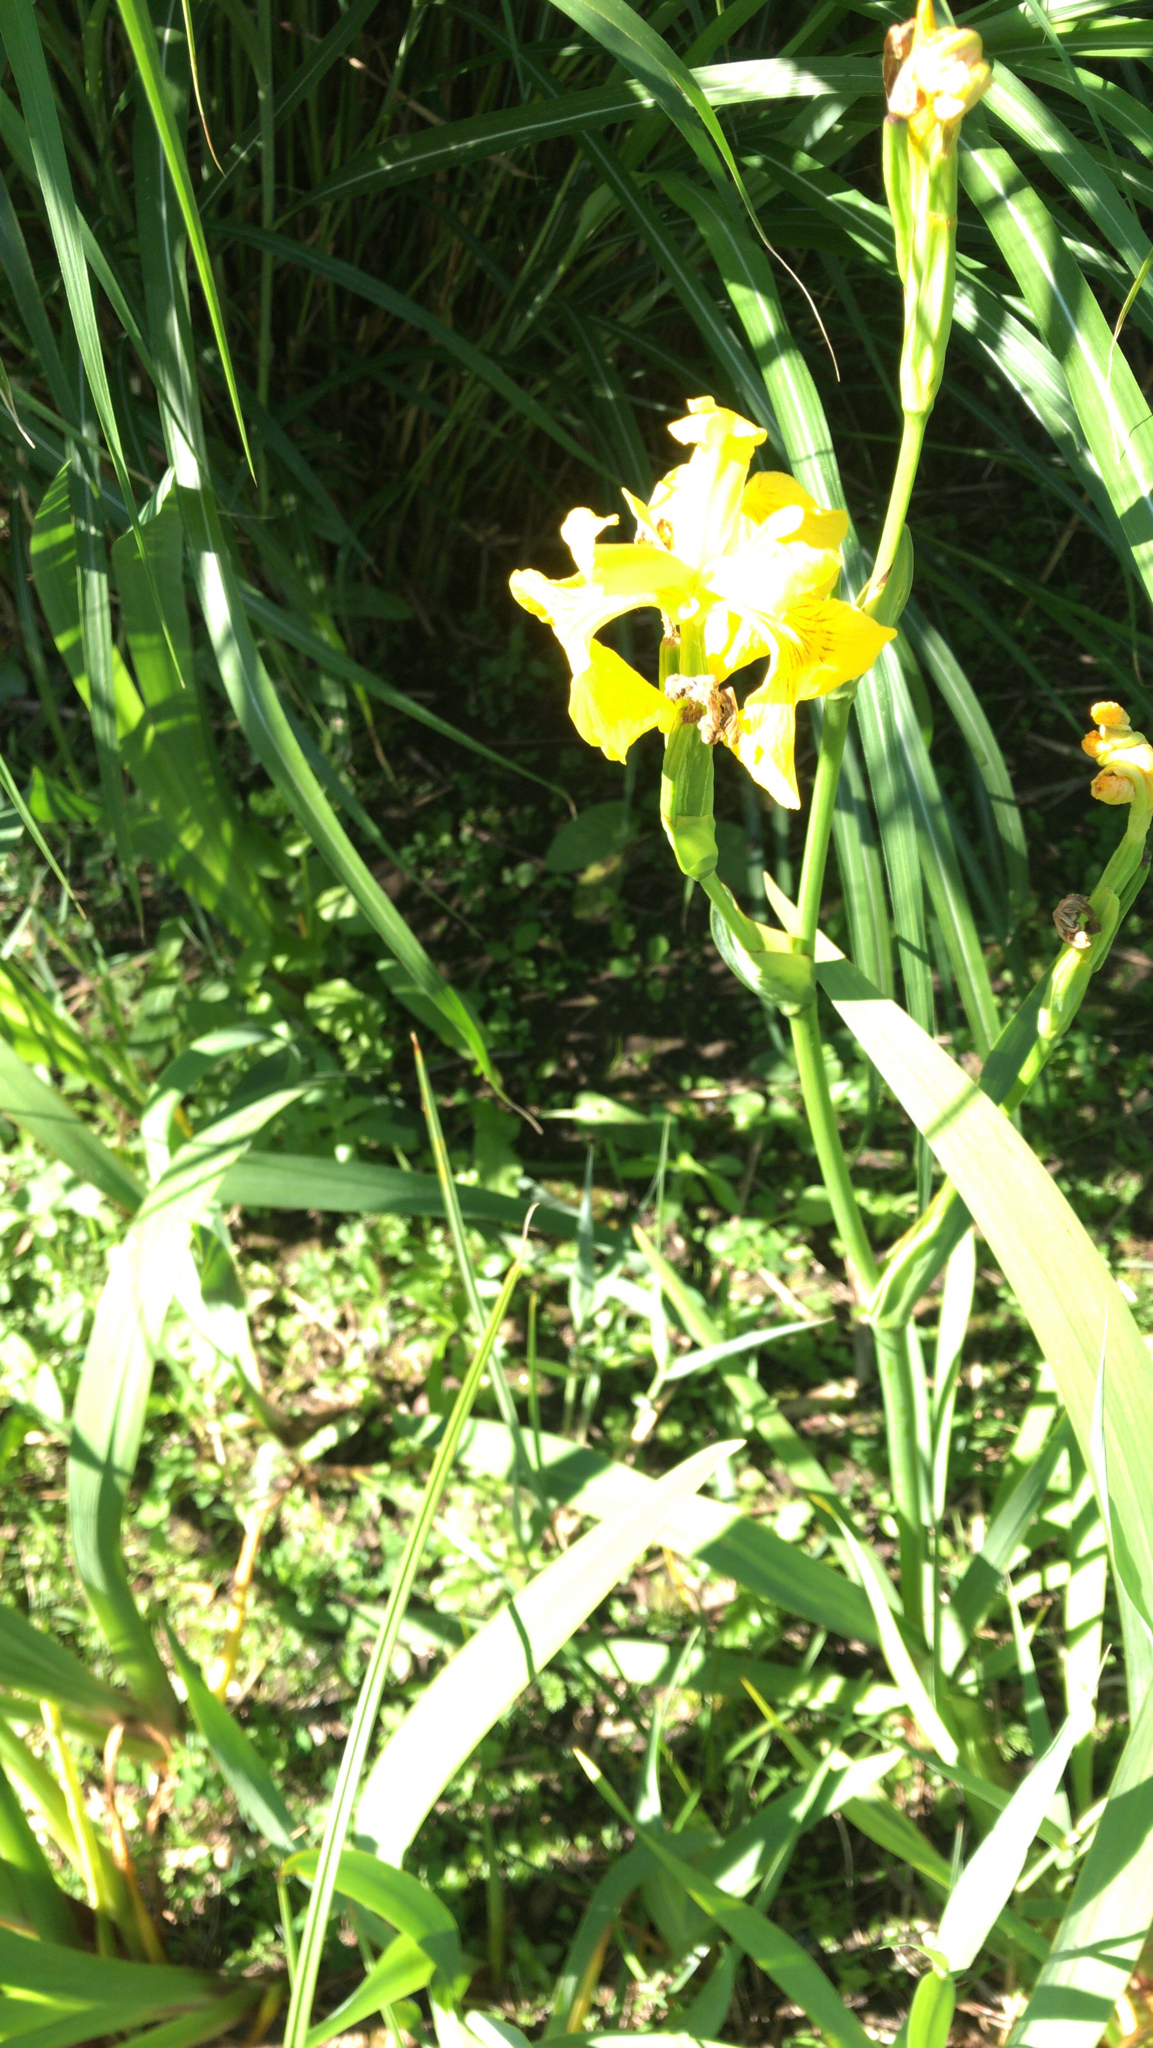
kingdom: Plantae
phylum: Tracheophyta
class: Liliopsida
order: Asparagales
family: Iridaceae
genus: Iris
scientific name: Iris pseudacorus
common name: Yellow flag
